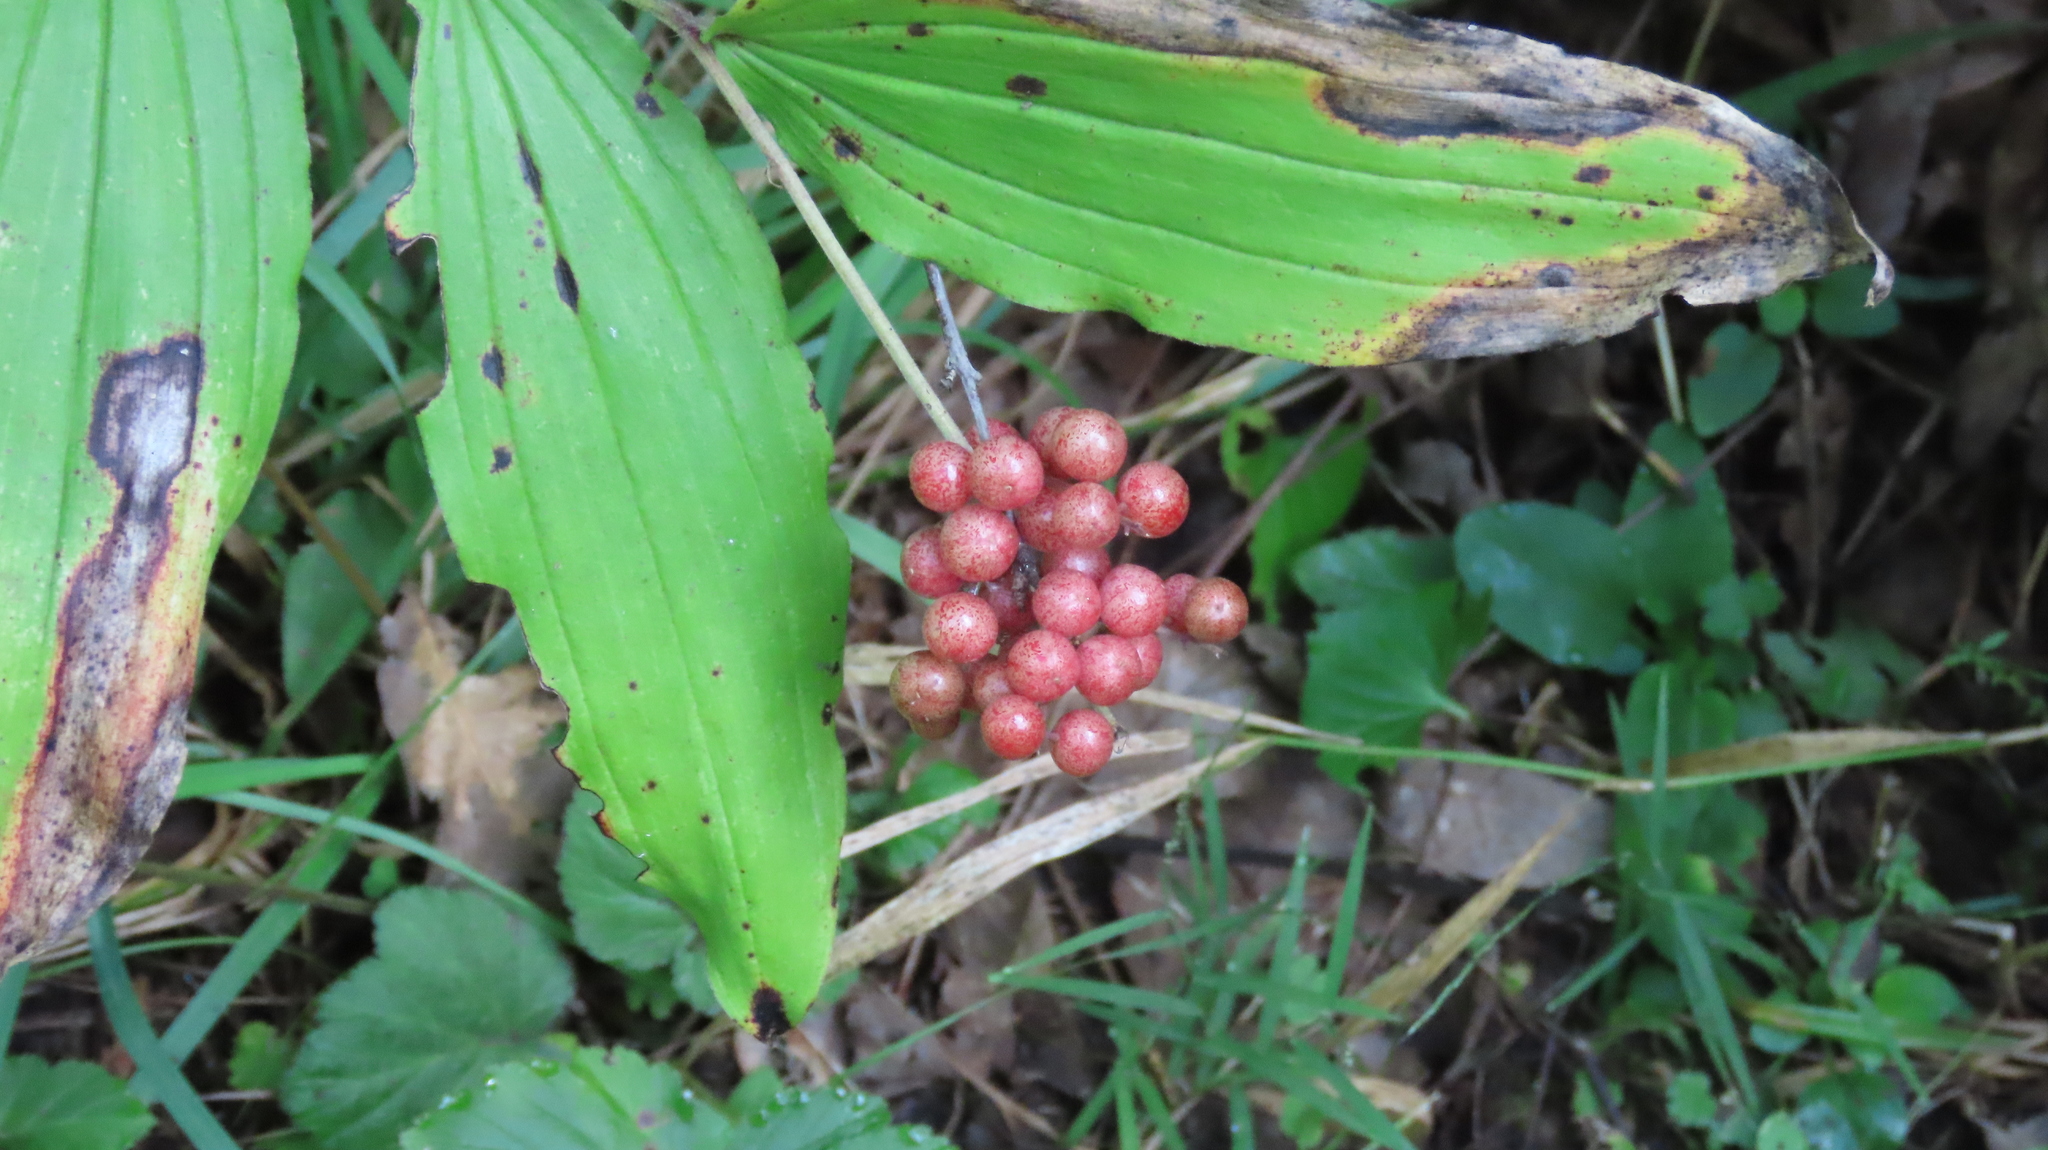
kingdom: Plantae
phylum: Tracheophyta
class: Liliopsida
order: Asparagales
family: Asparagaceae
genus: Maianthemum
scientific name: Maianthemum racemosum
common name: False spikenard
